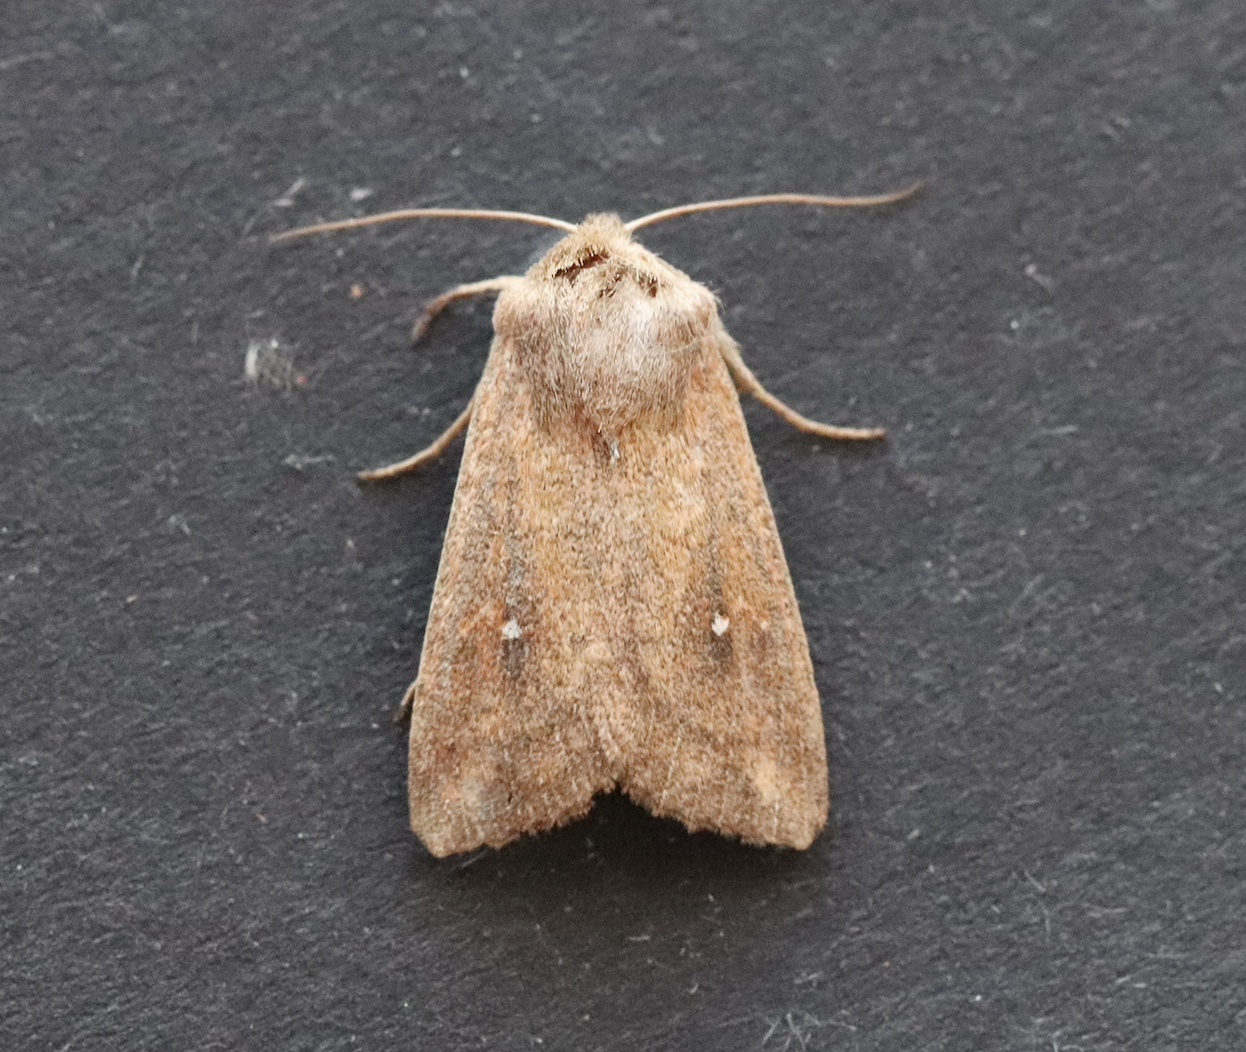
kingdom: Animalia
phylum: Arthropoda
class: Insecta
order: Lepidoptera
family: Noctuidae
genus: Mythimna
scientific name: Mythimna albipuncta
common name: White-point
